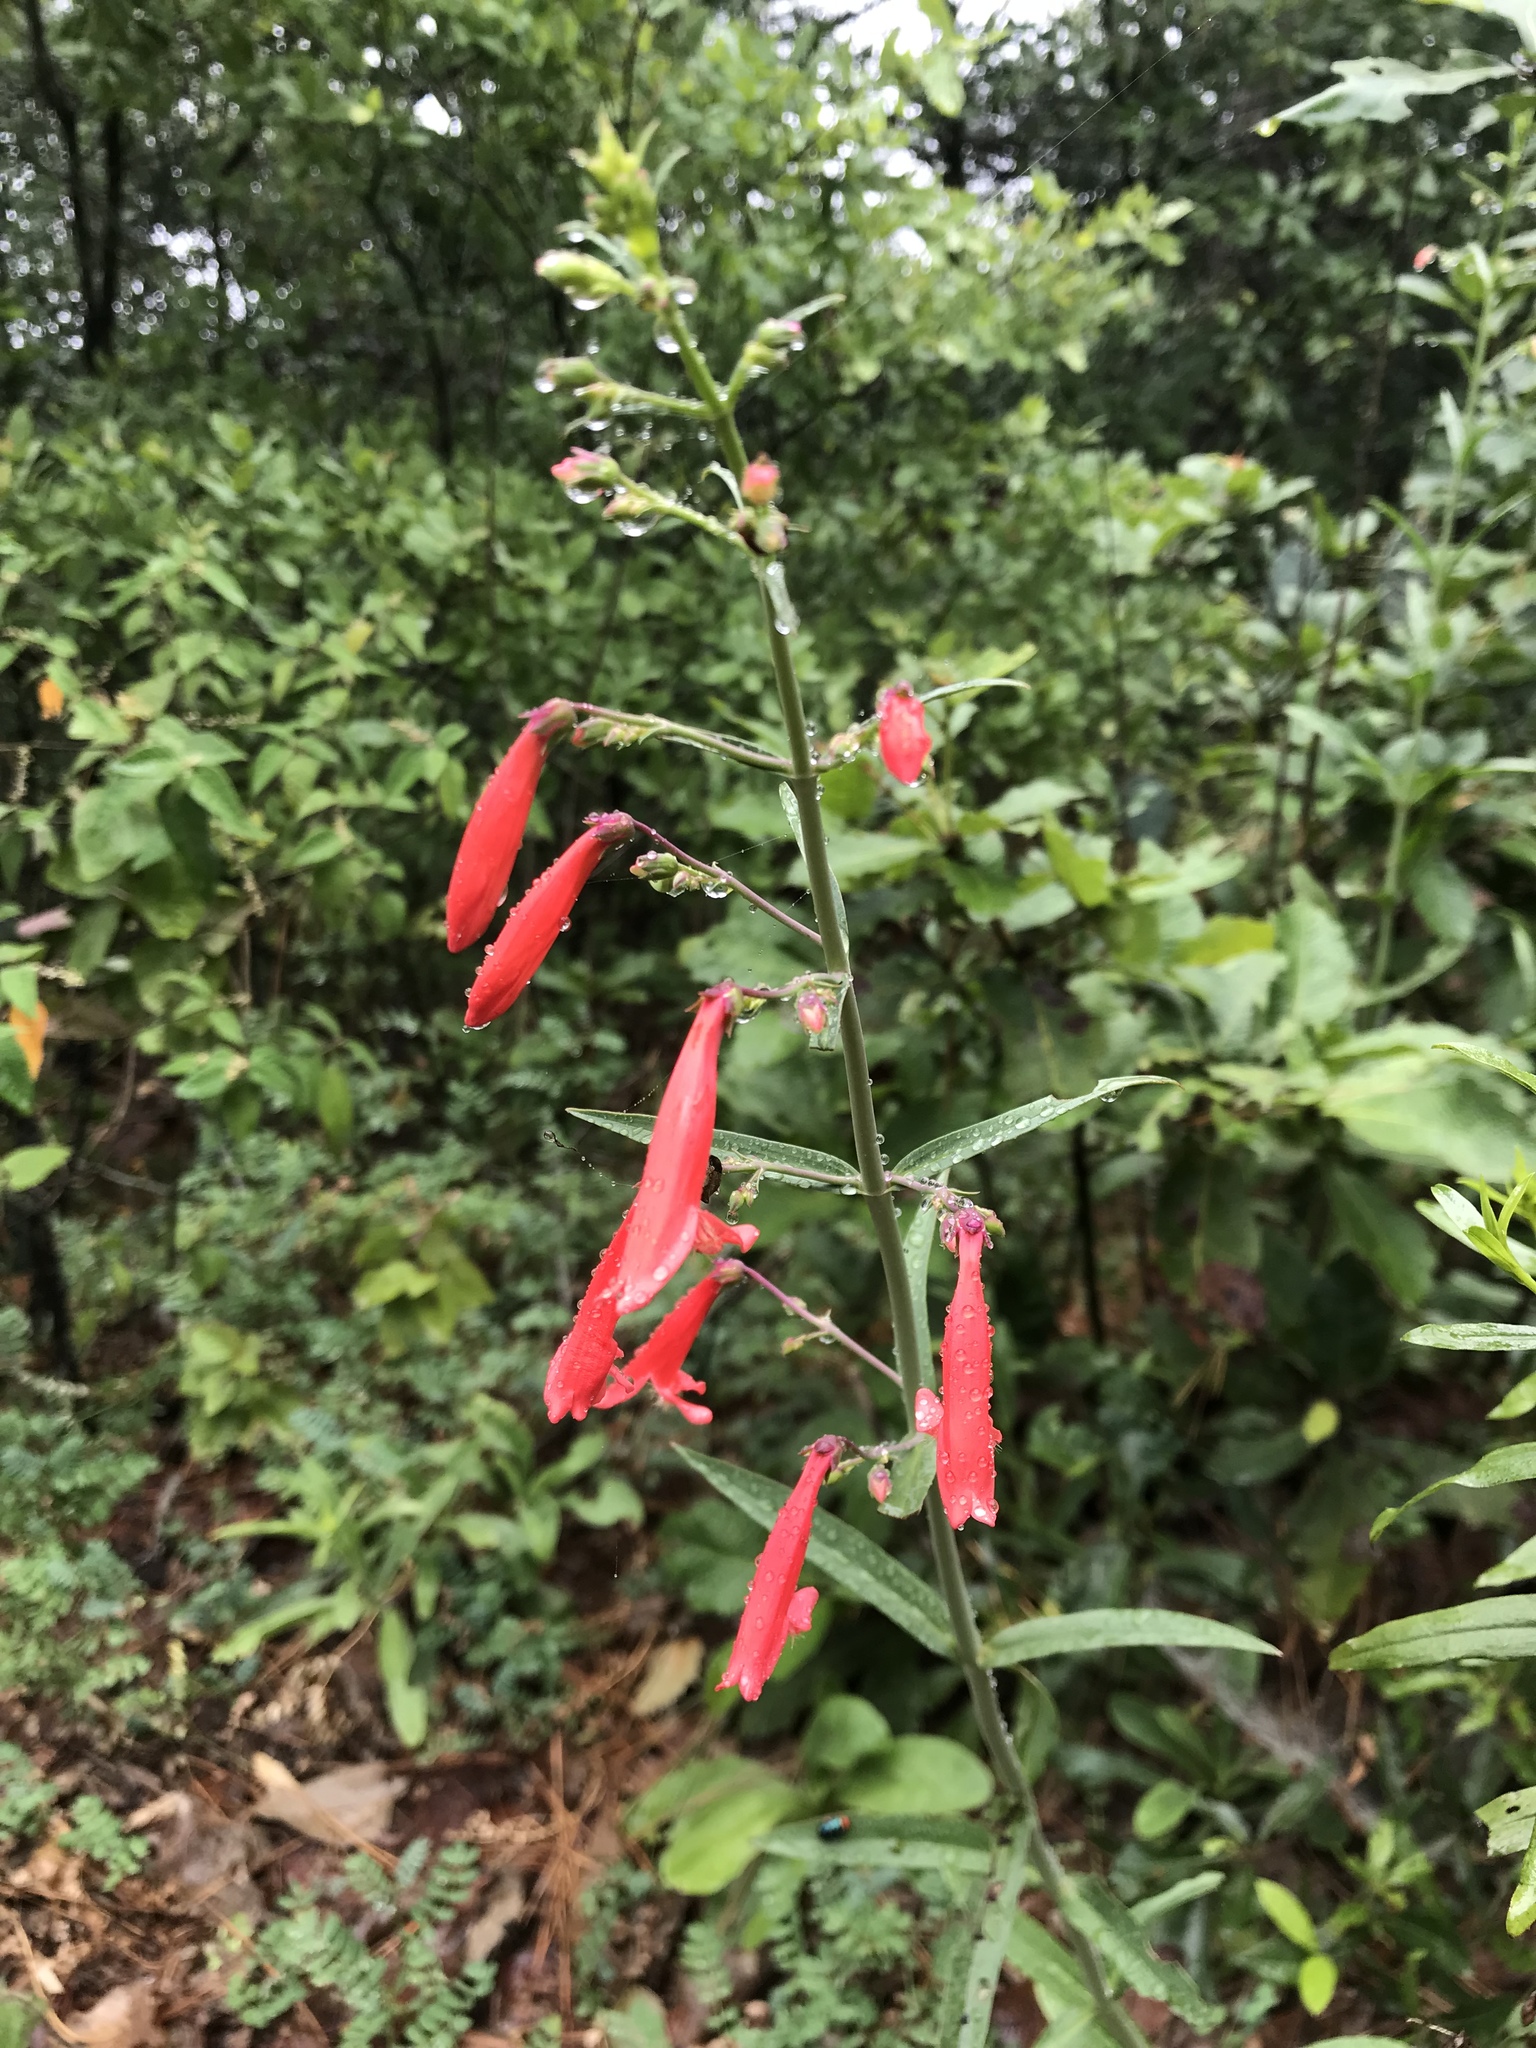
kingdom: Plantae
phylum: Tracheophyta
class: Magnoliopsida
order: Lamiales
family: Plantaginaceae
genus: Penstemon
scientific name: Penstemon barbatus
